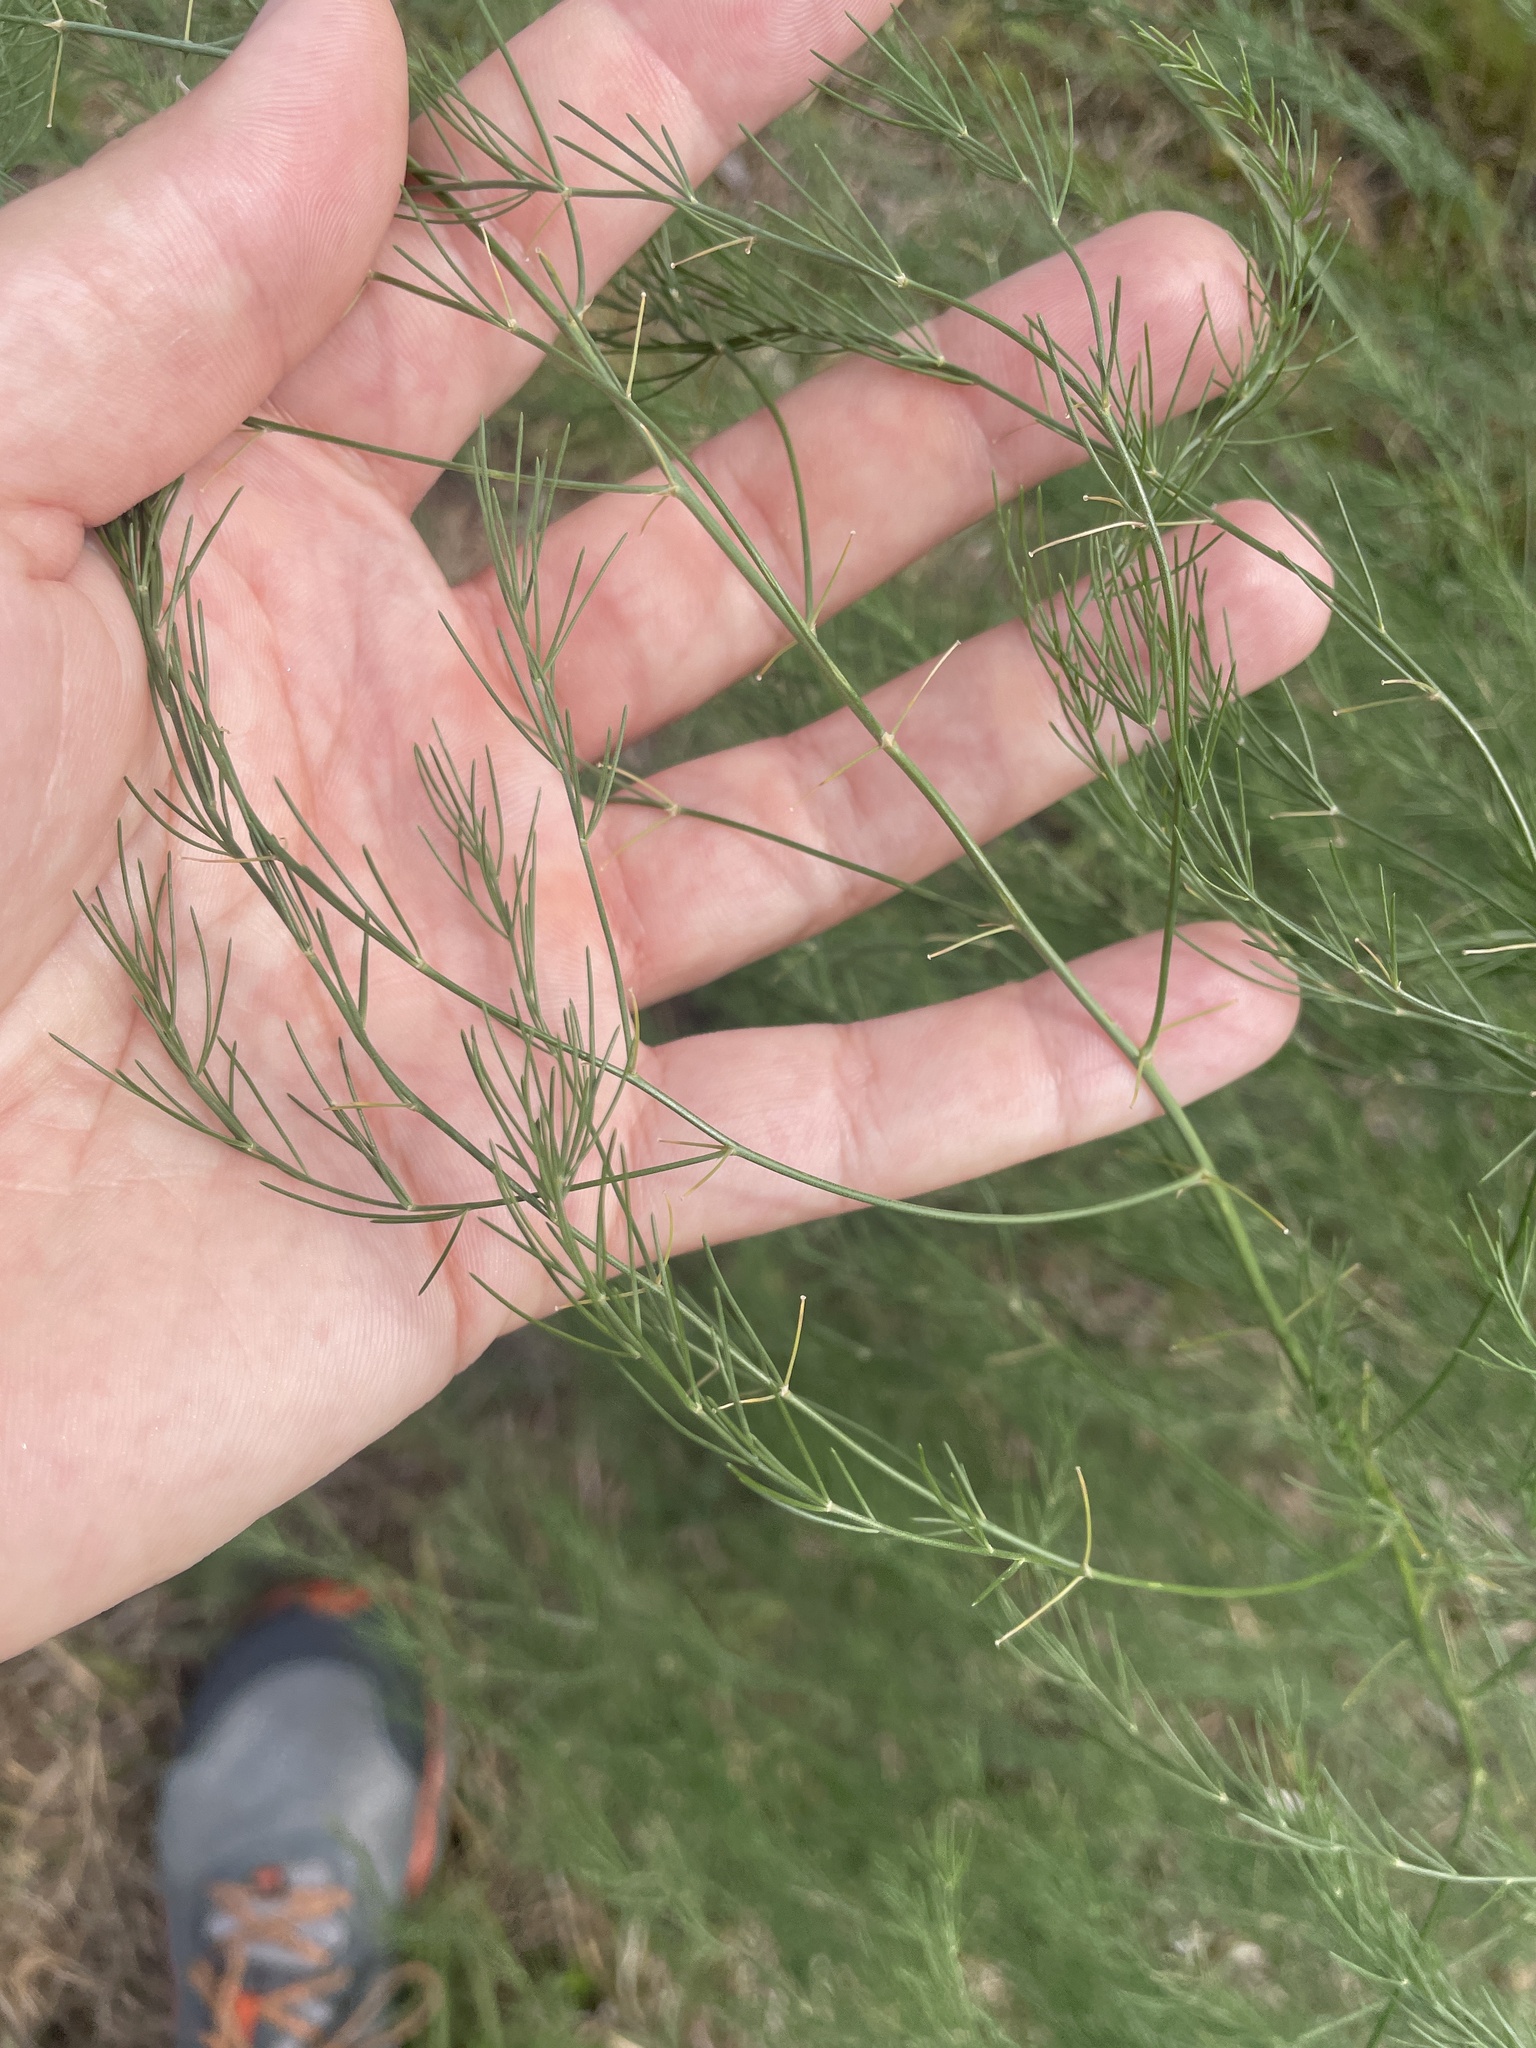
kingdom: Plantae
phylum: Tracheophyta
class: Liliopsida
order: Asparagales
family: Asparagaceae
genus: Asparagus
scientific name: Asparagus officinalis
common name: Garden asparagus
